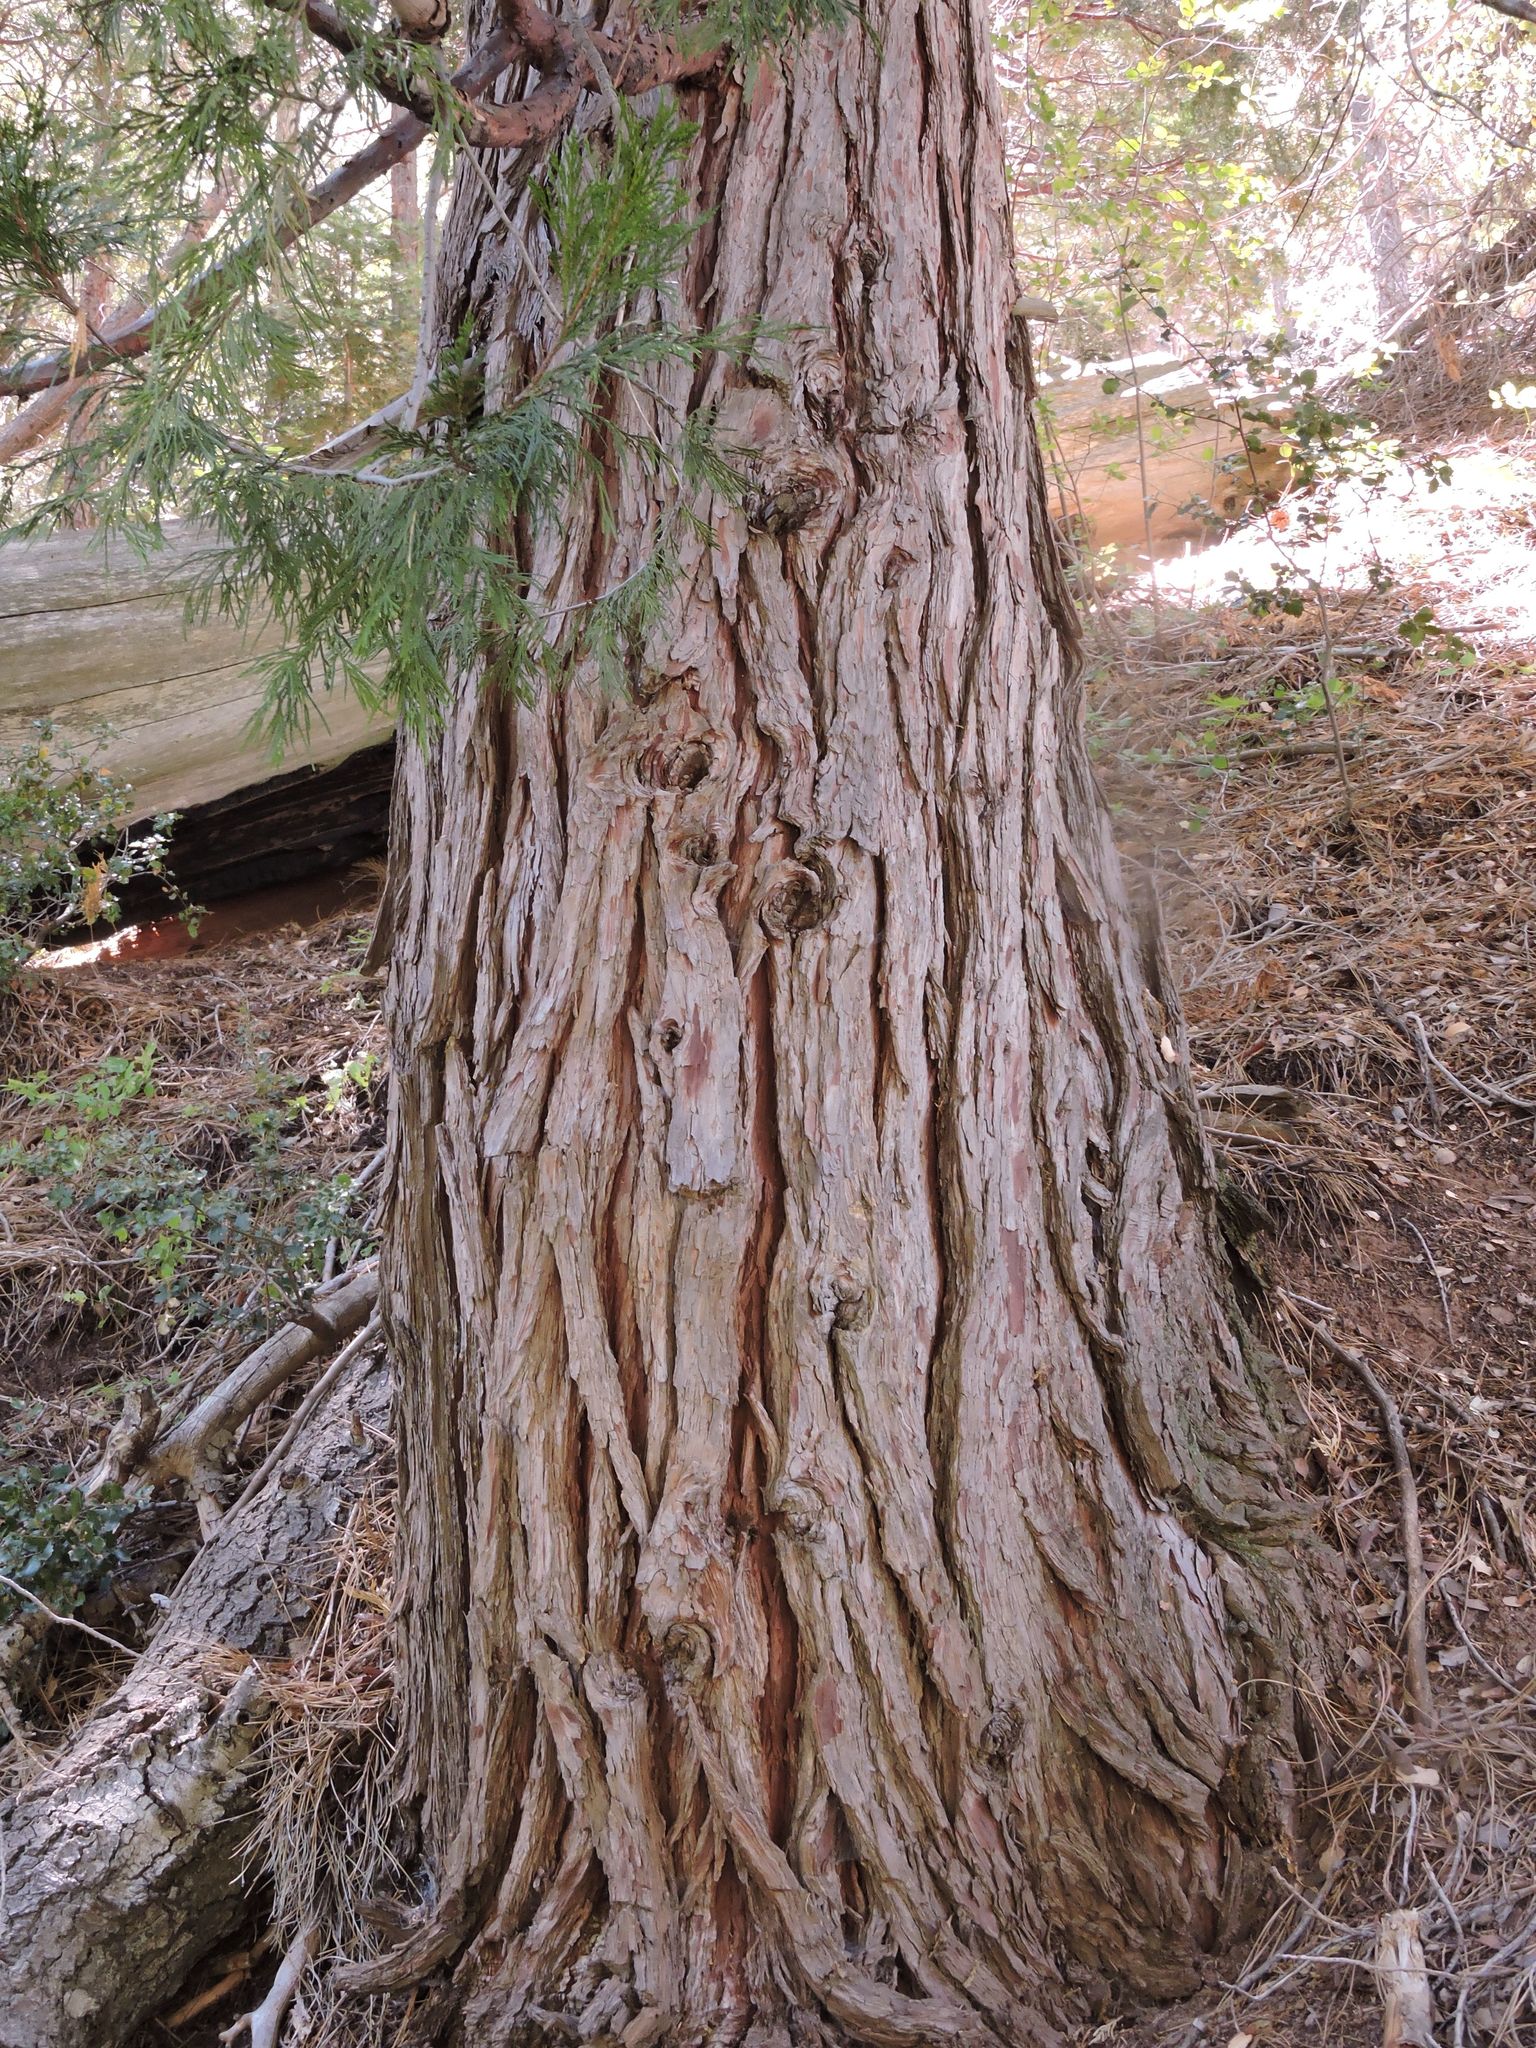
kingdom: Plantae
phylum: Tracheophyta
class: Pinopsida
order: Pinales
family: Cupressaceae
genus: Calocedrus
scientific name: Calocedrus decurrens
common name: Californian incense-cedar
